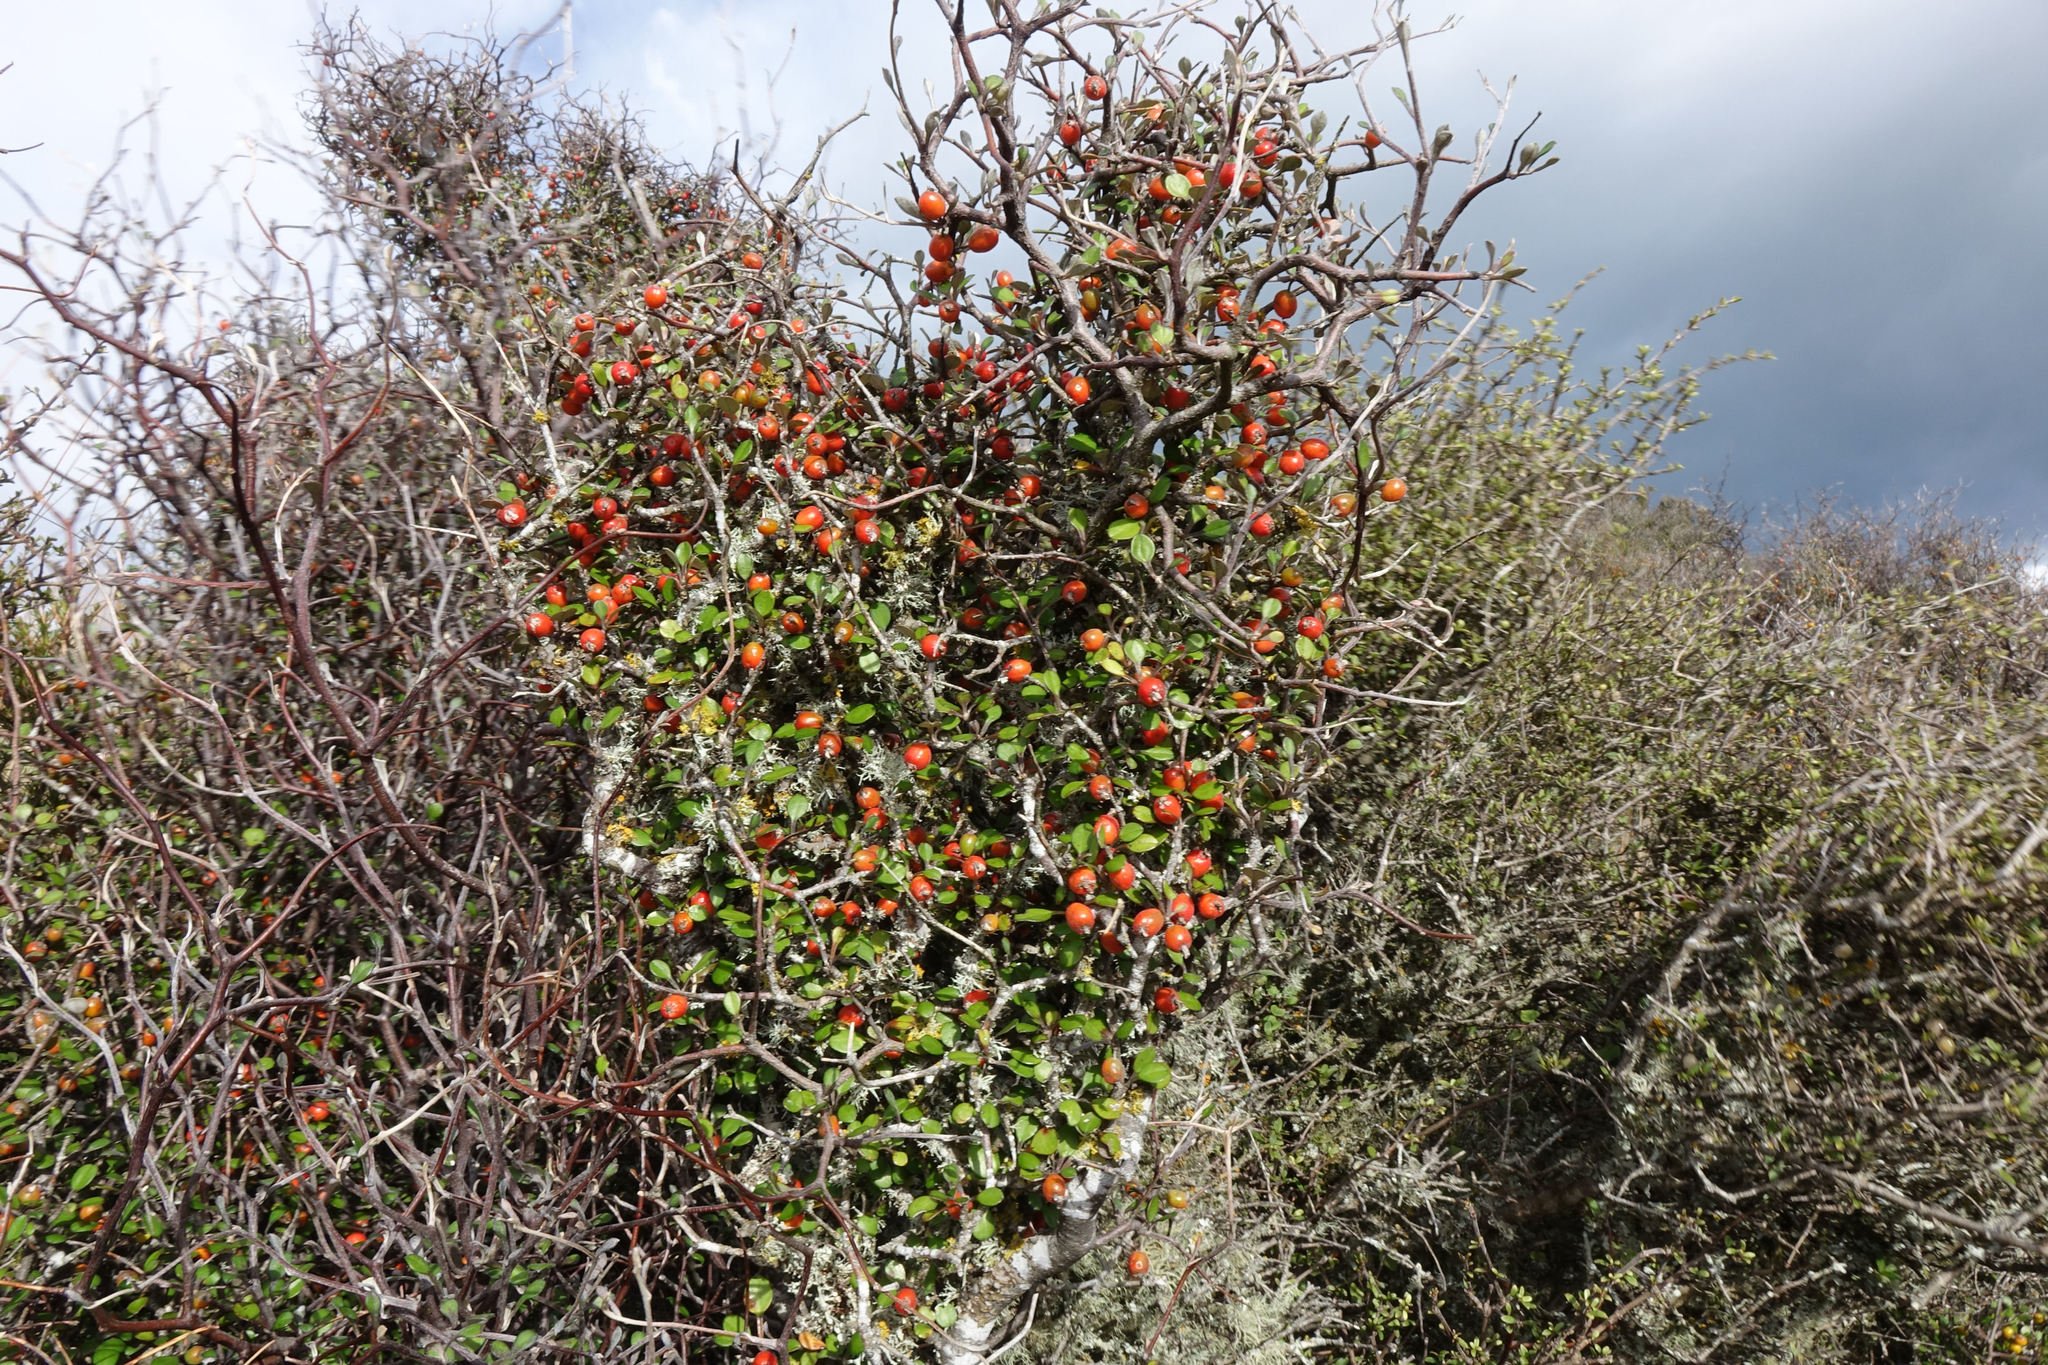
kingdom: Plantae
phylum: Tracheophyta
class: Magnoliopsida
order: Asterales
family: Argophyllaceae
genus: Corokia
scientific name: Corokia cotoneaster
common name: Wire nettingbush
